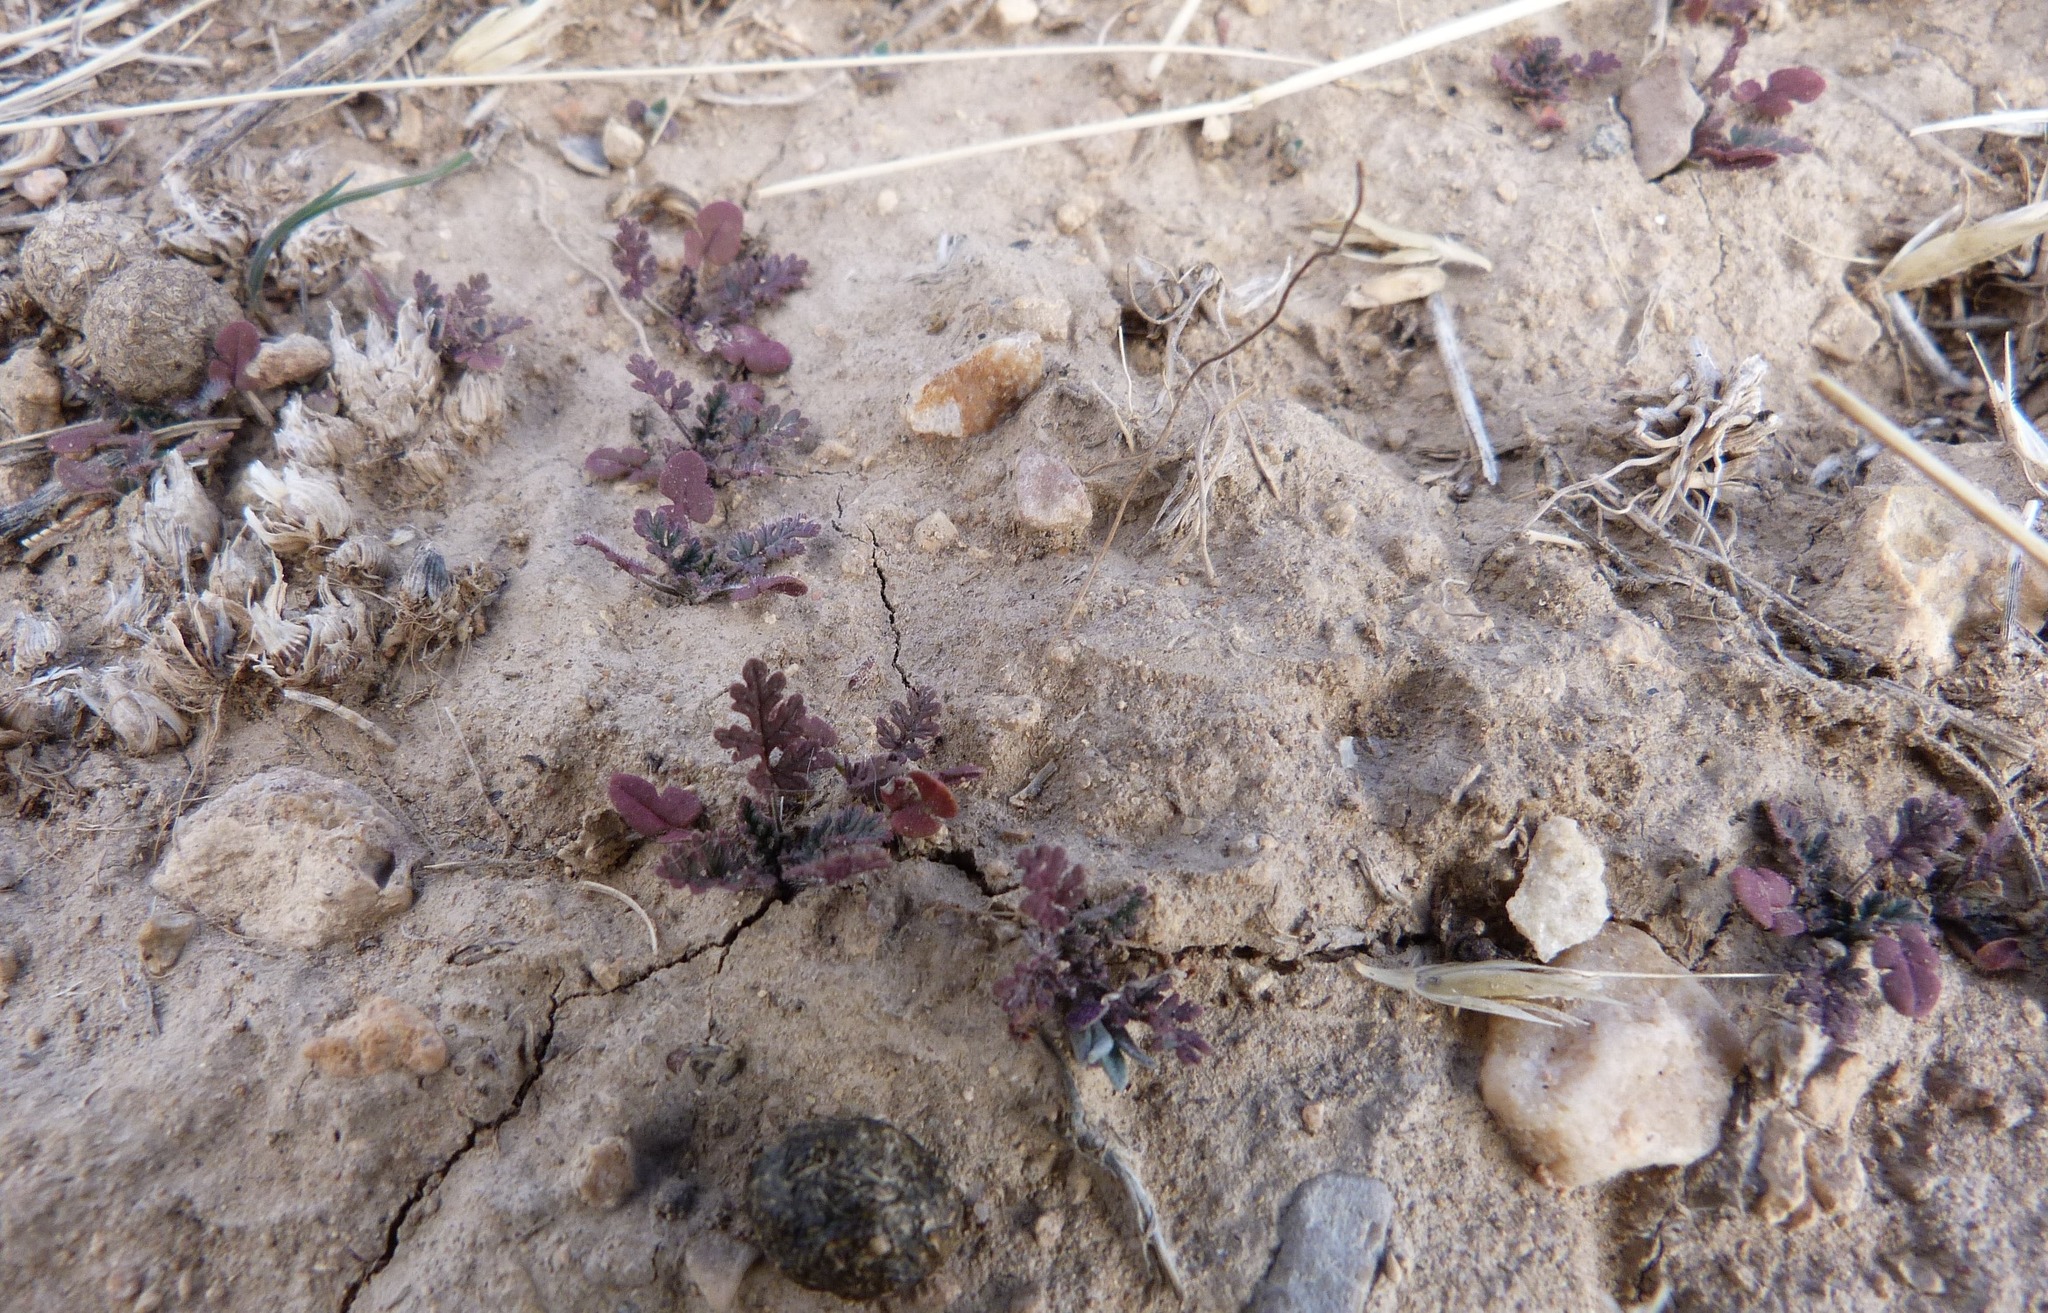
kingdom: Plantae
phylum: Tracheophyta
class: Magnoliopsida
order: Geraniales
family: Geraniaceae
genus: Erodium
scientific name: Erodium cicutarium
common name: Common stork's-bill
